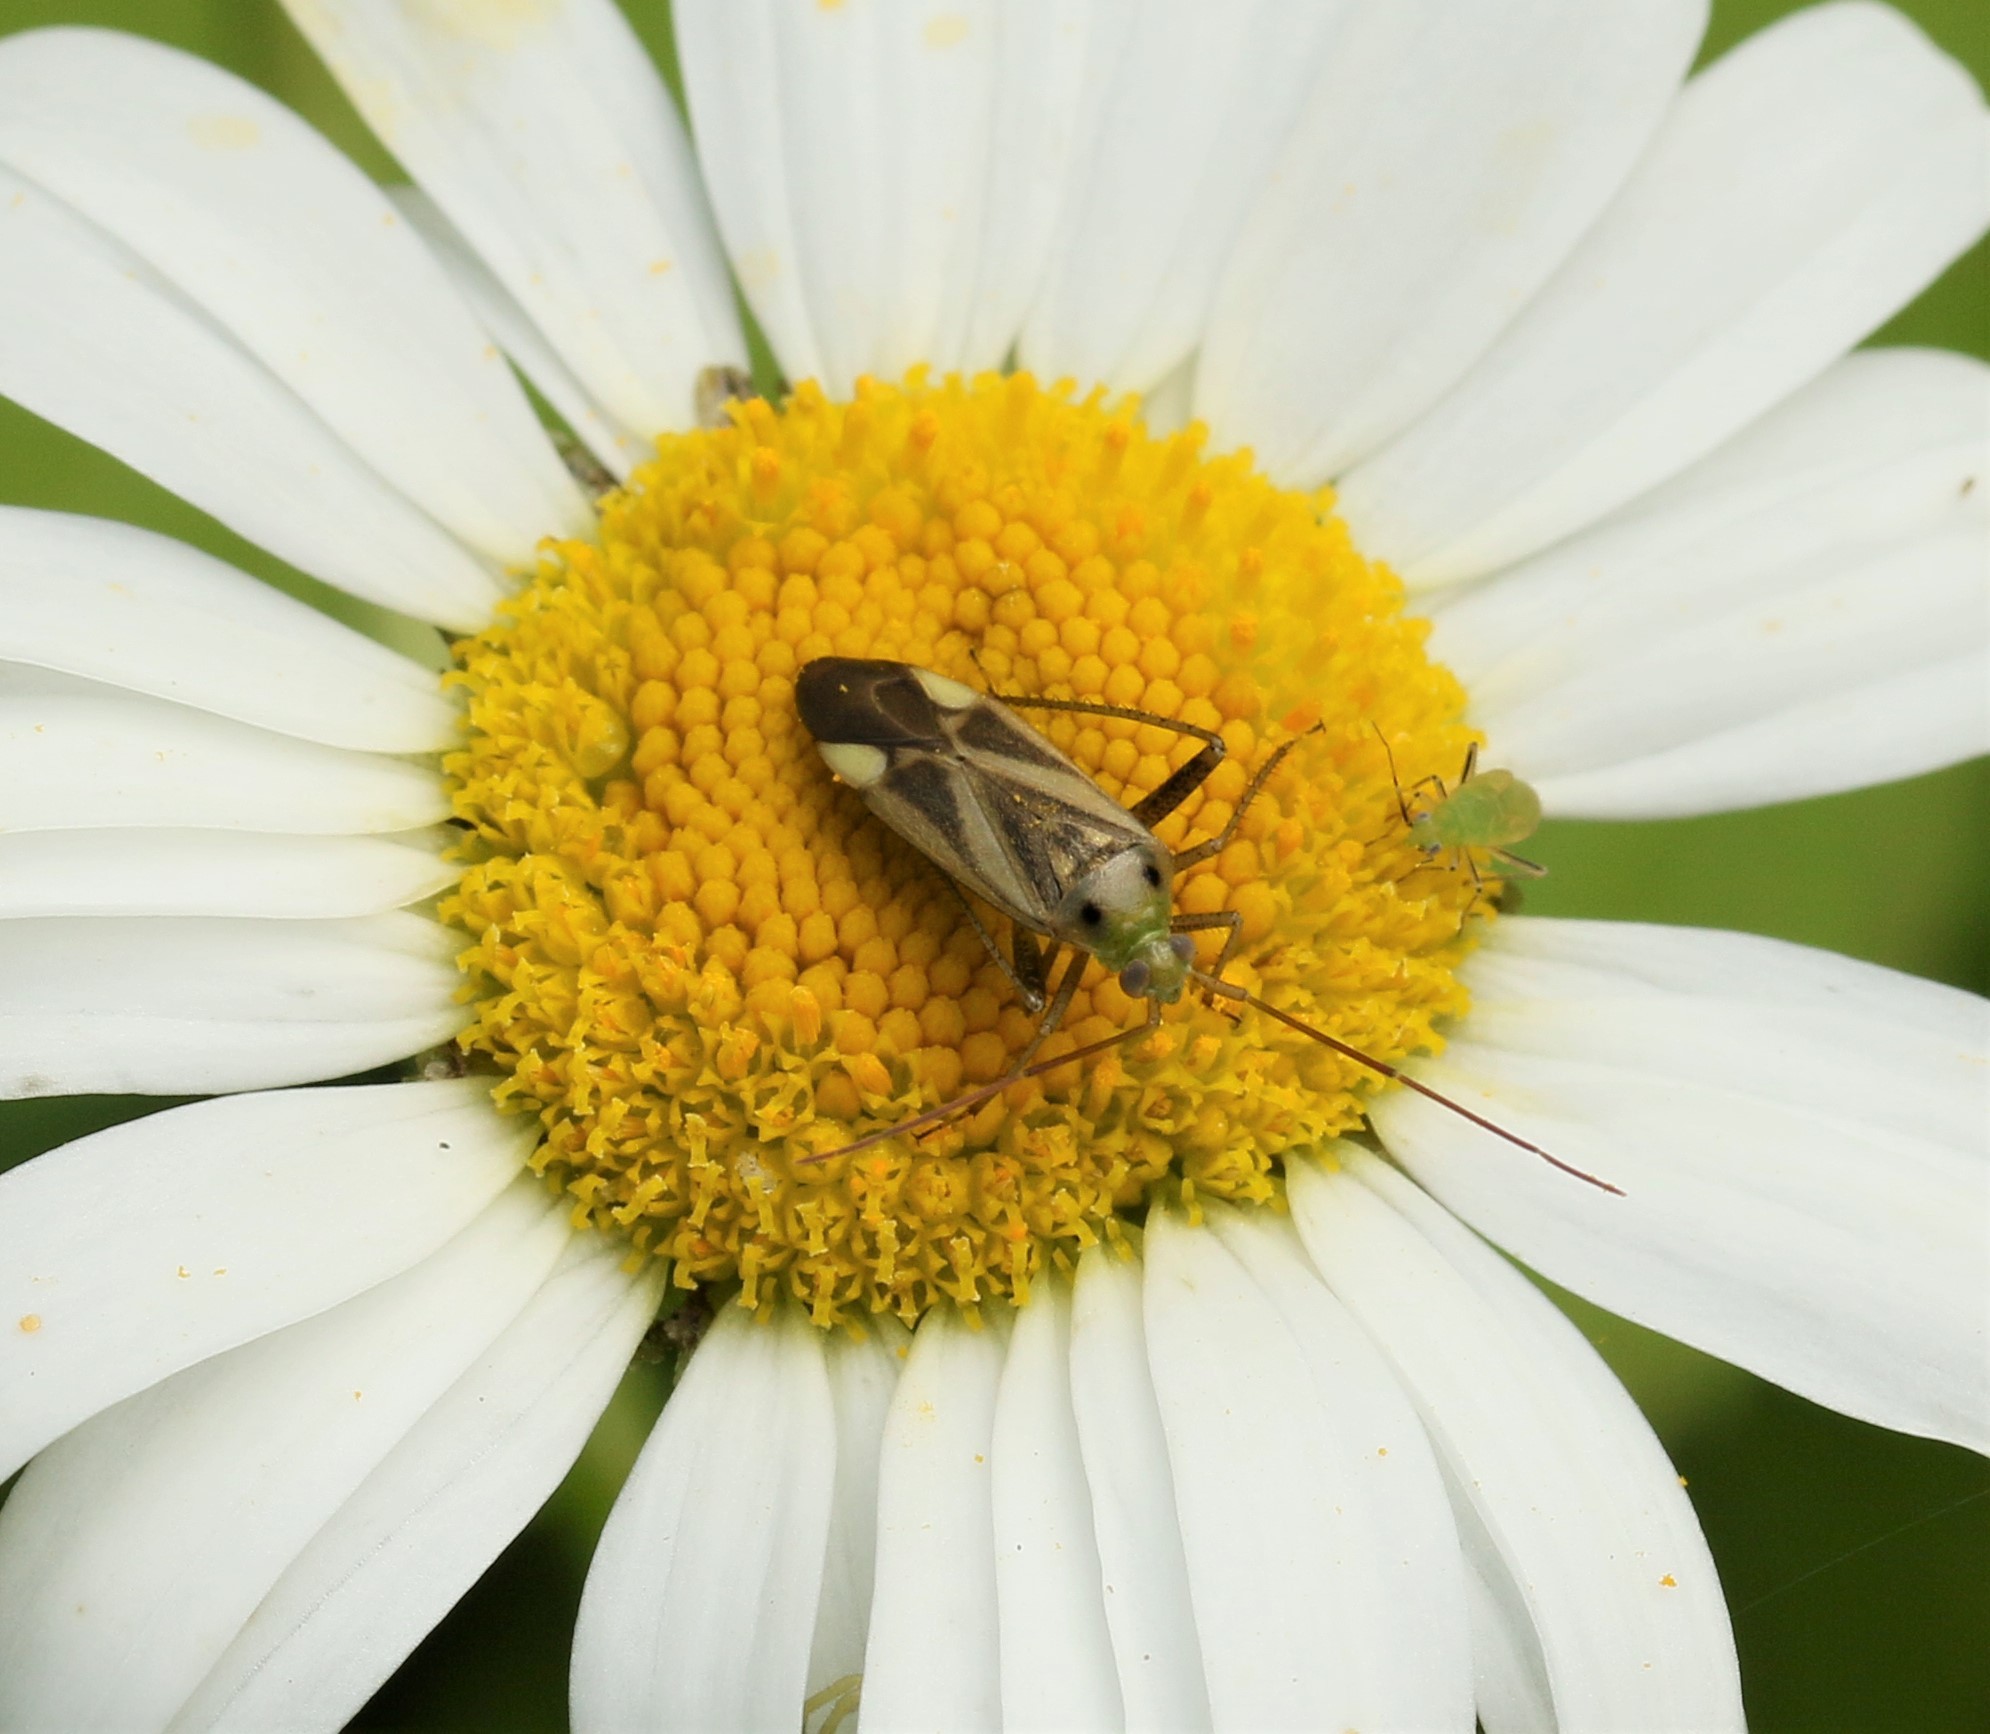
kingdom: Animalia
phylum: Arthropoda
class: Insecta
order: Hemiptera
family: Miridae
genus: Adelphocoris
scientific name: Adelphocoris lineolatus
